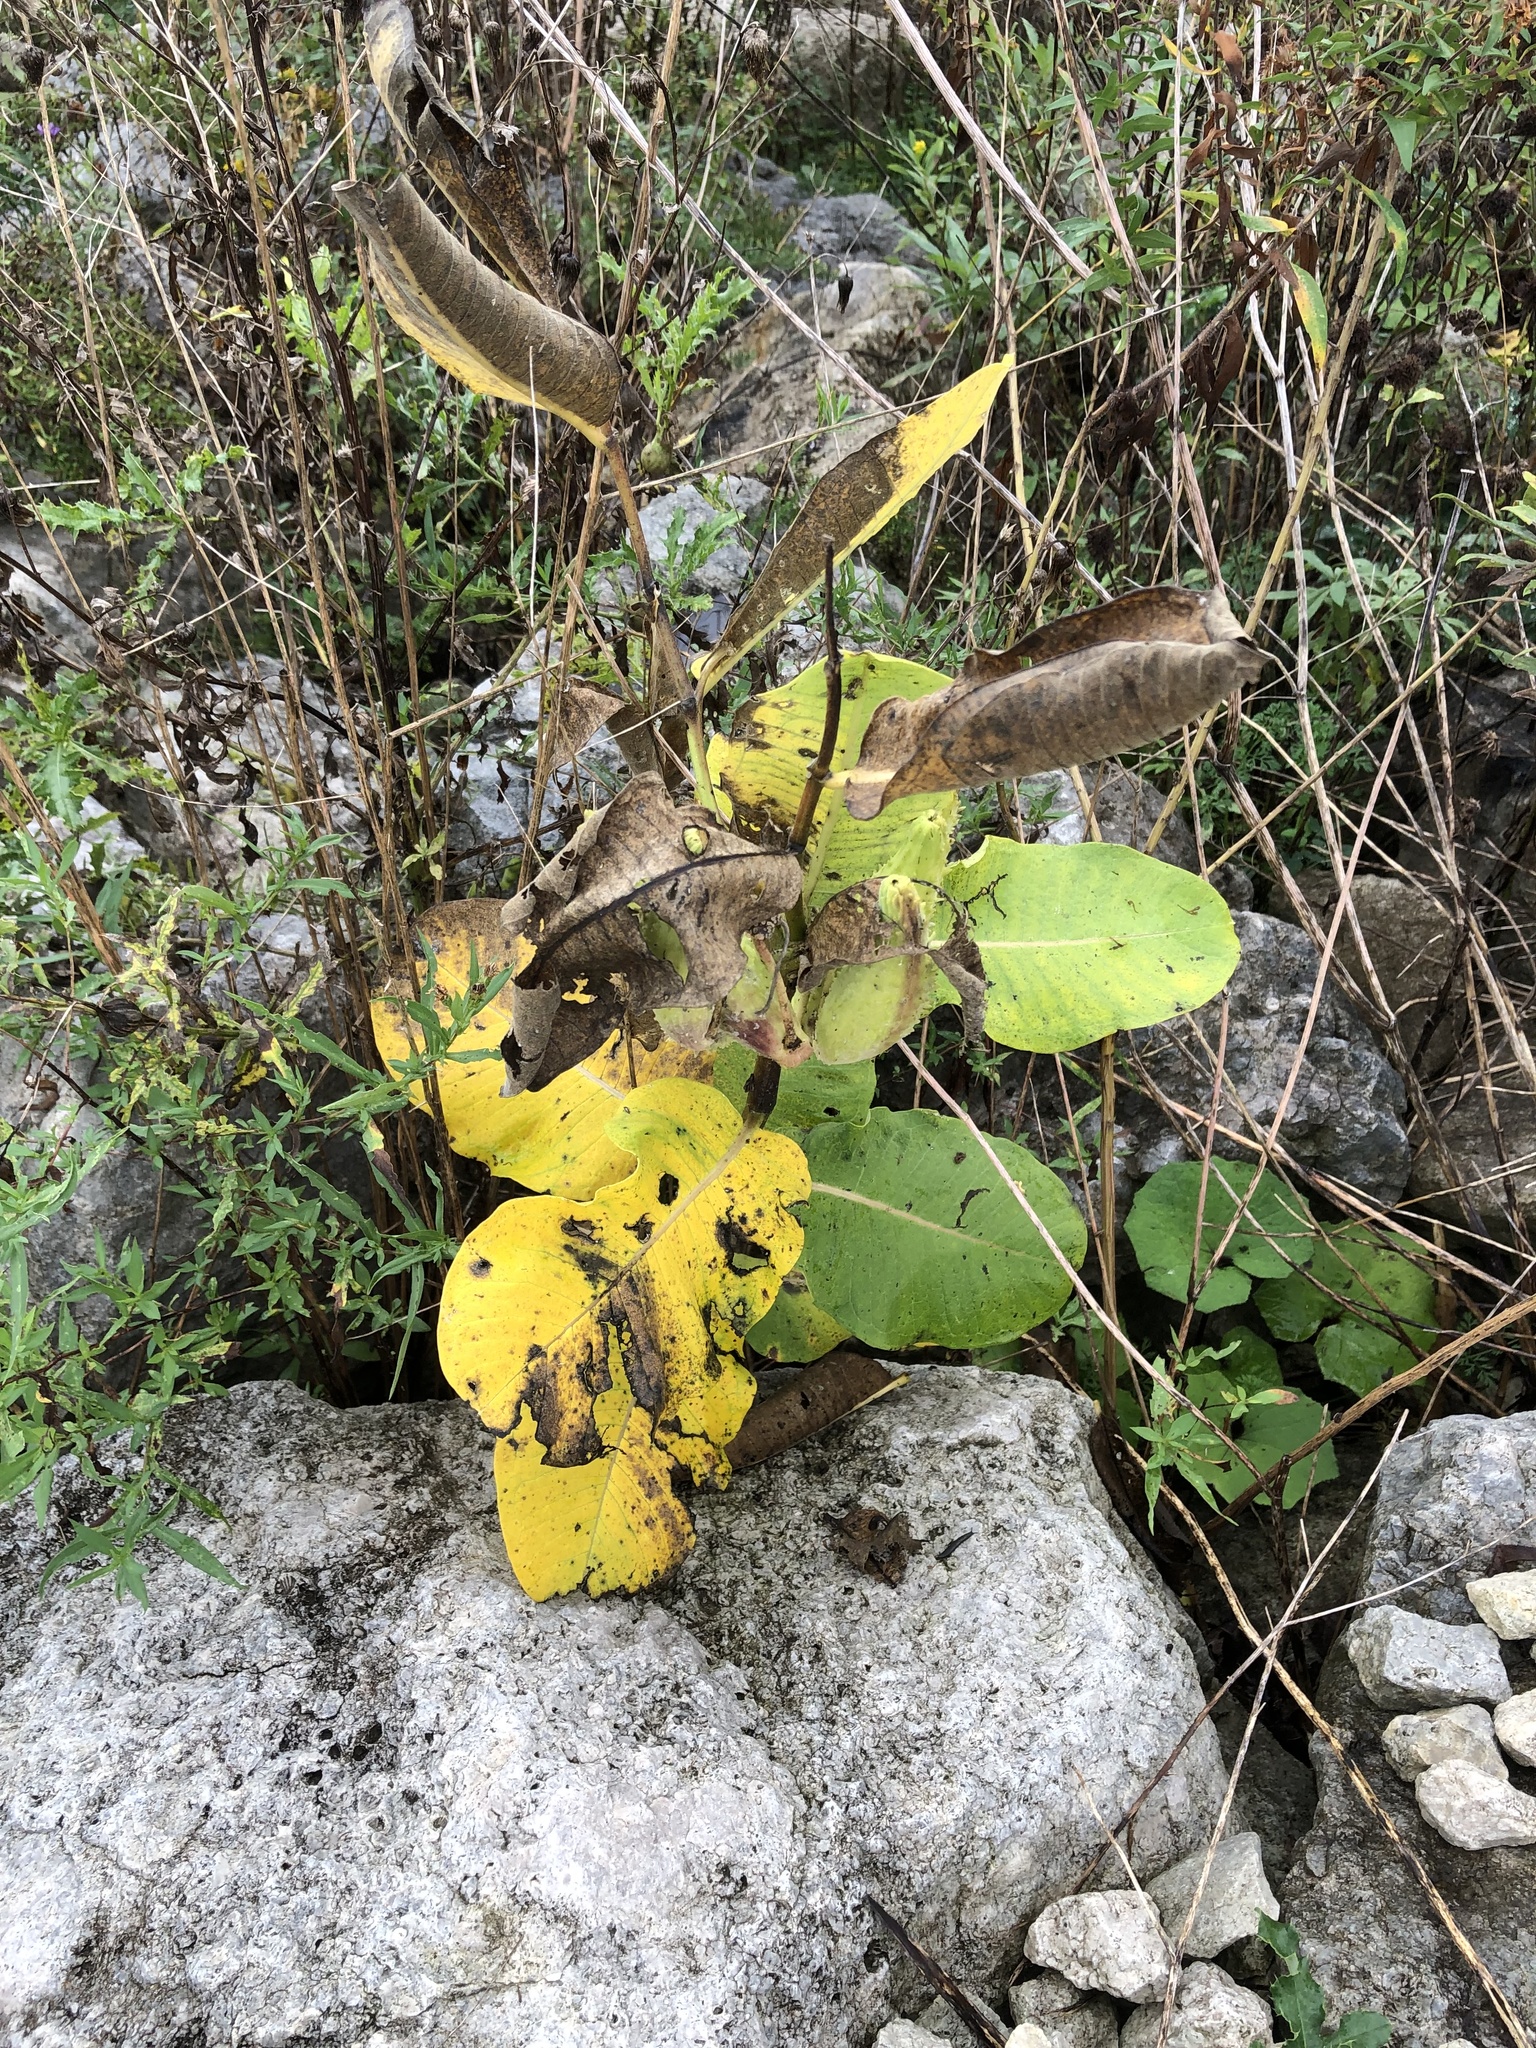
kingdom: Plantae
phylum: Tracheophyta
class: Magnoliopsida
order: Gentianales
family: Apocynaceae
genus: Asclepias
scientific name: Asclepias syriaca
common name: Common milkweed
